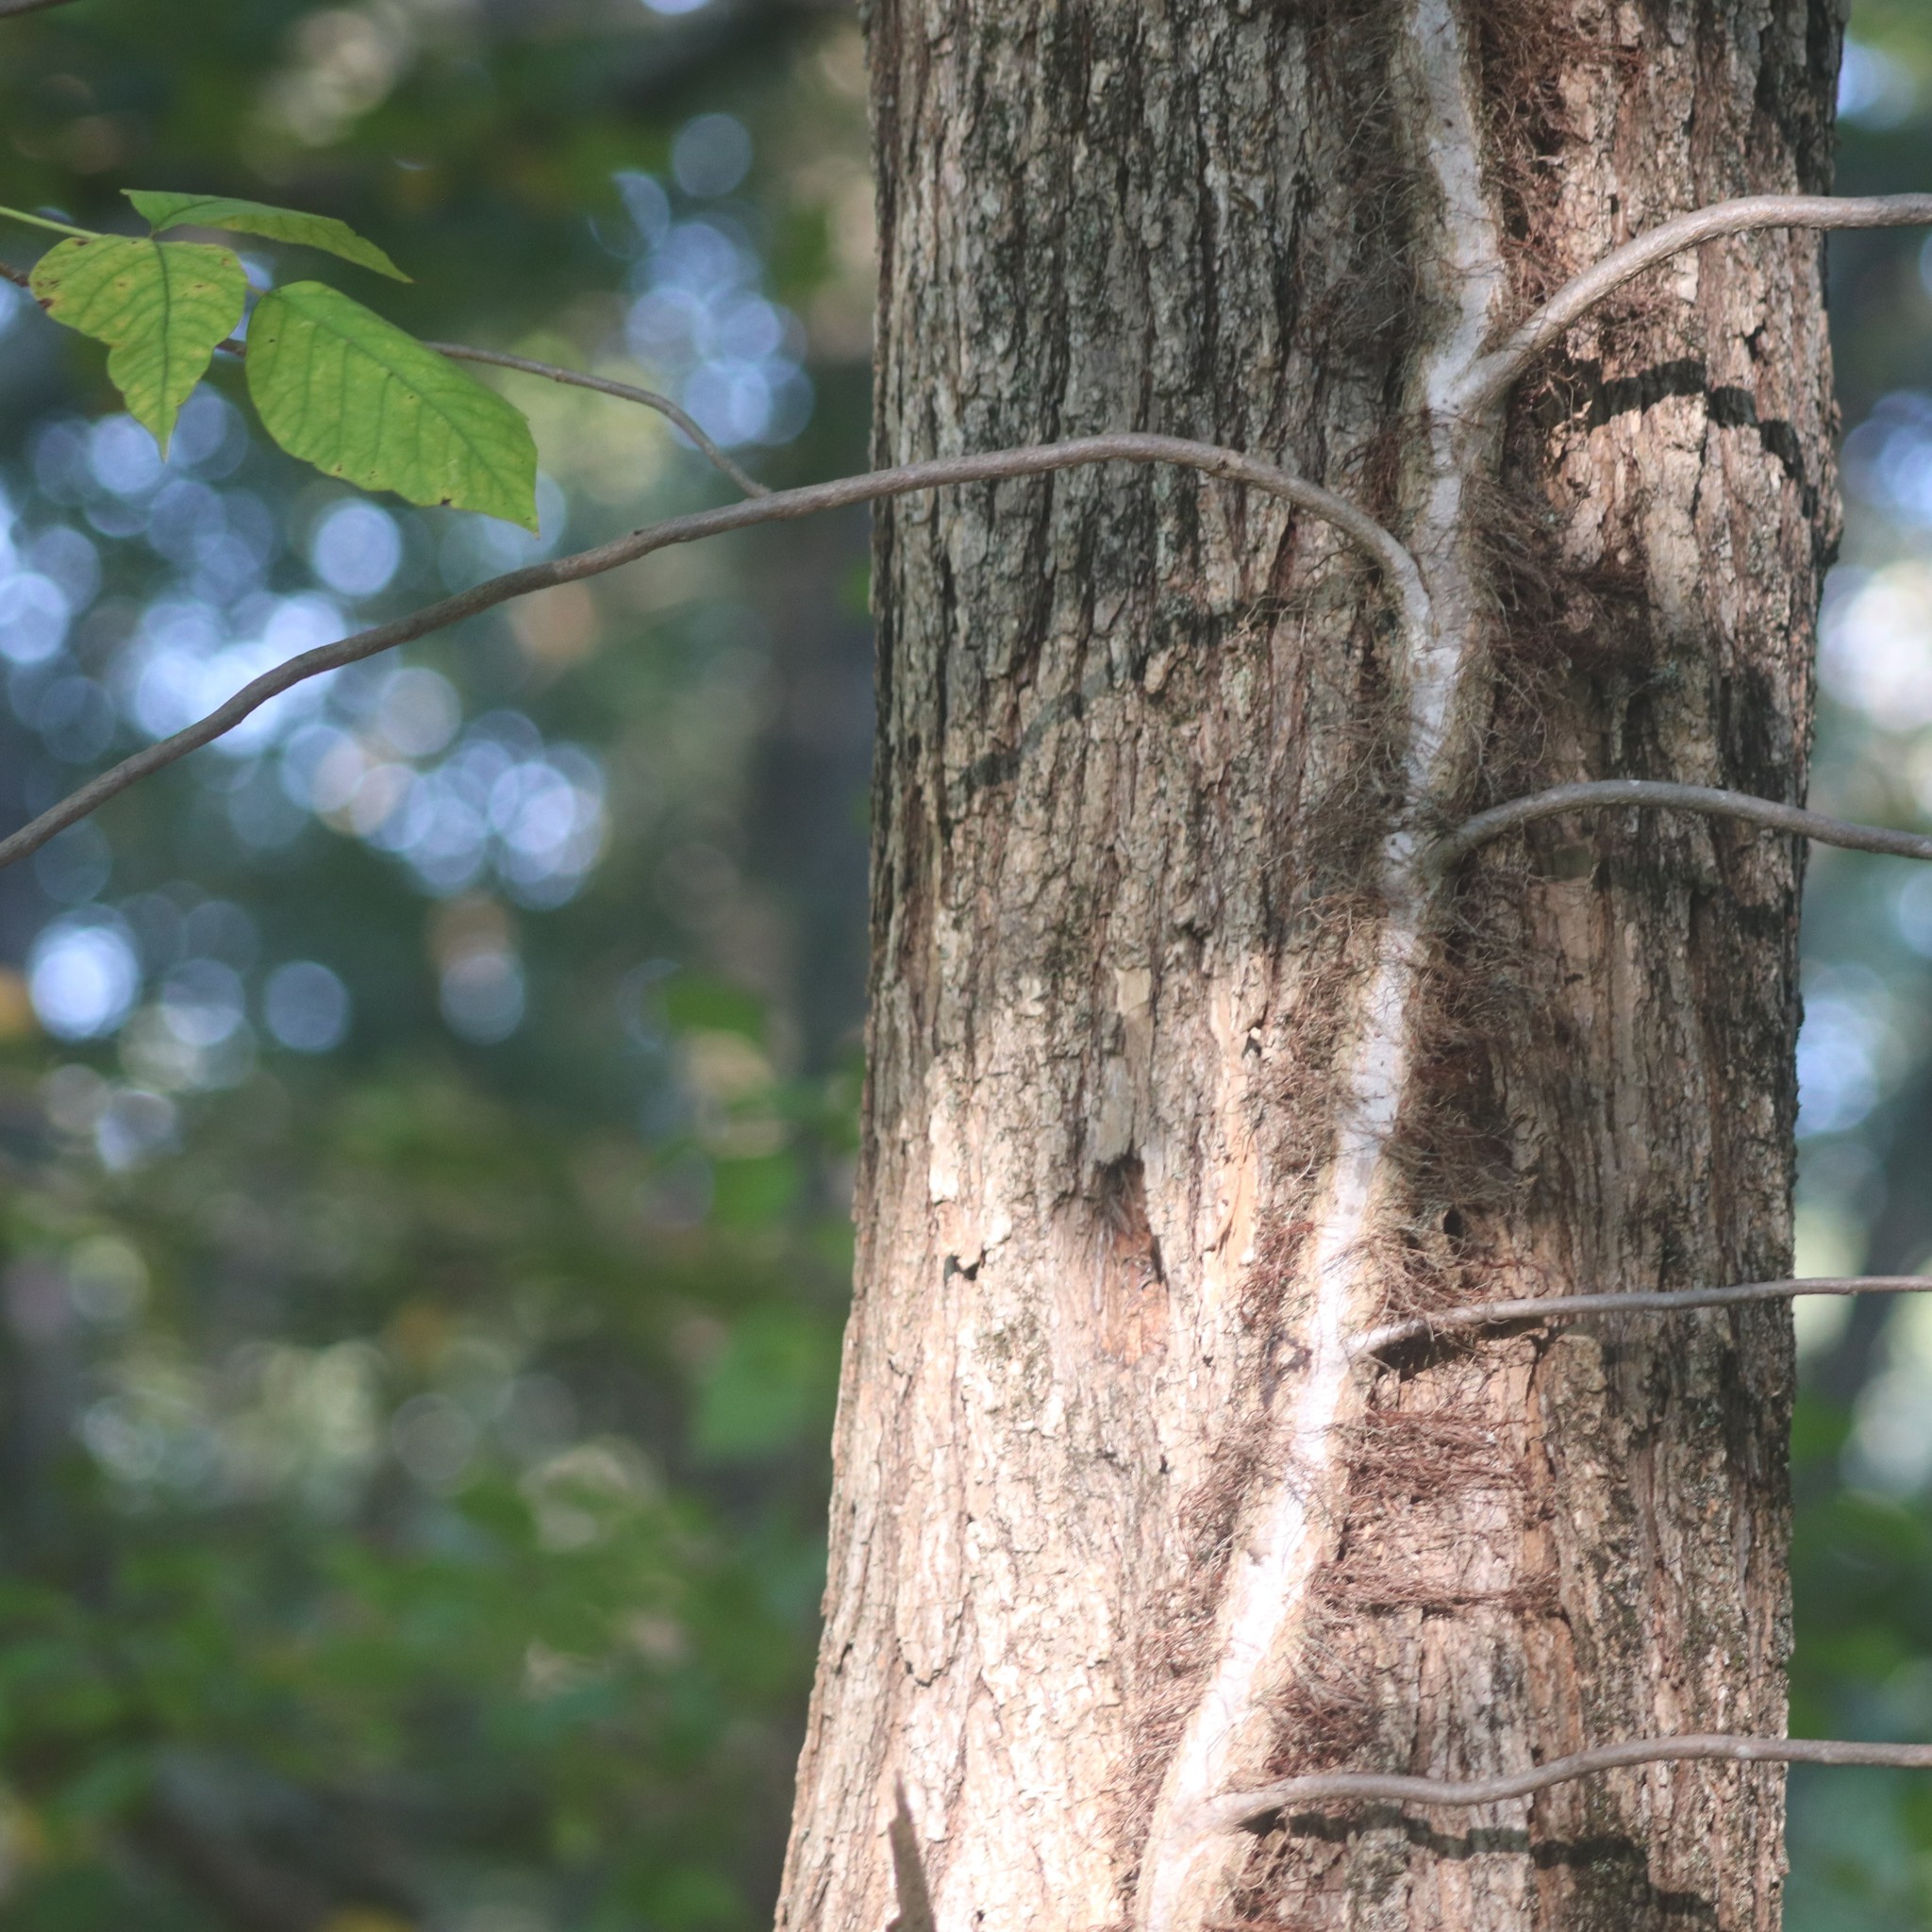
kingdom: Plantae
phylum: Tracheophyta
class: Magnoliopsida
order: Sapindales
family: Anacardiaceae
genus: Toxicodendron
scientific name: Toxicodendron radicans
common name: Poison ivy
